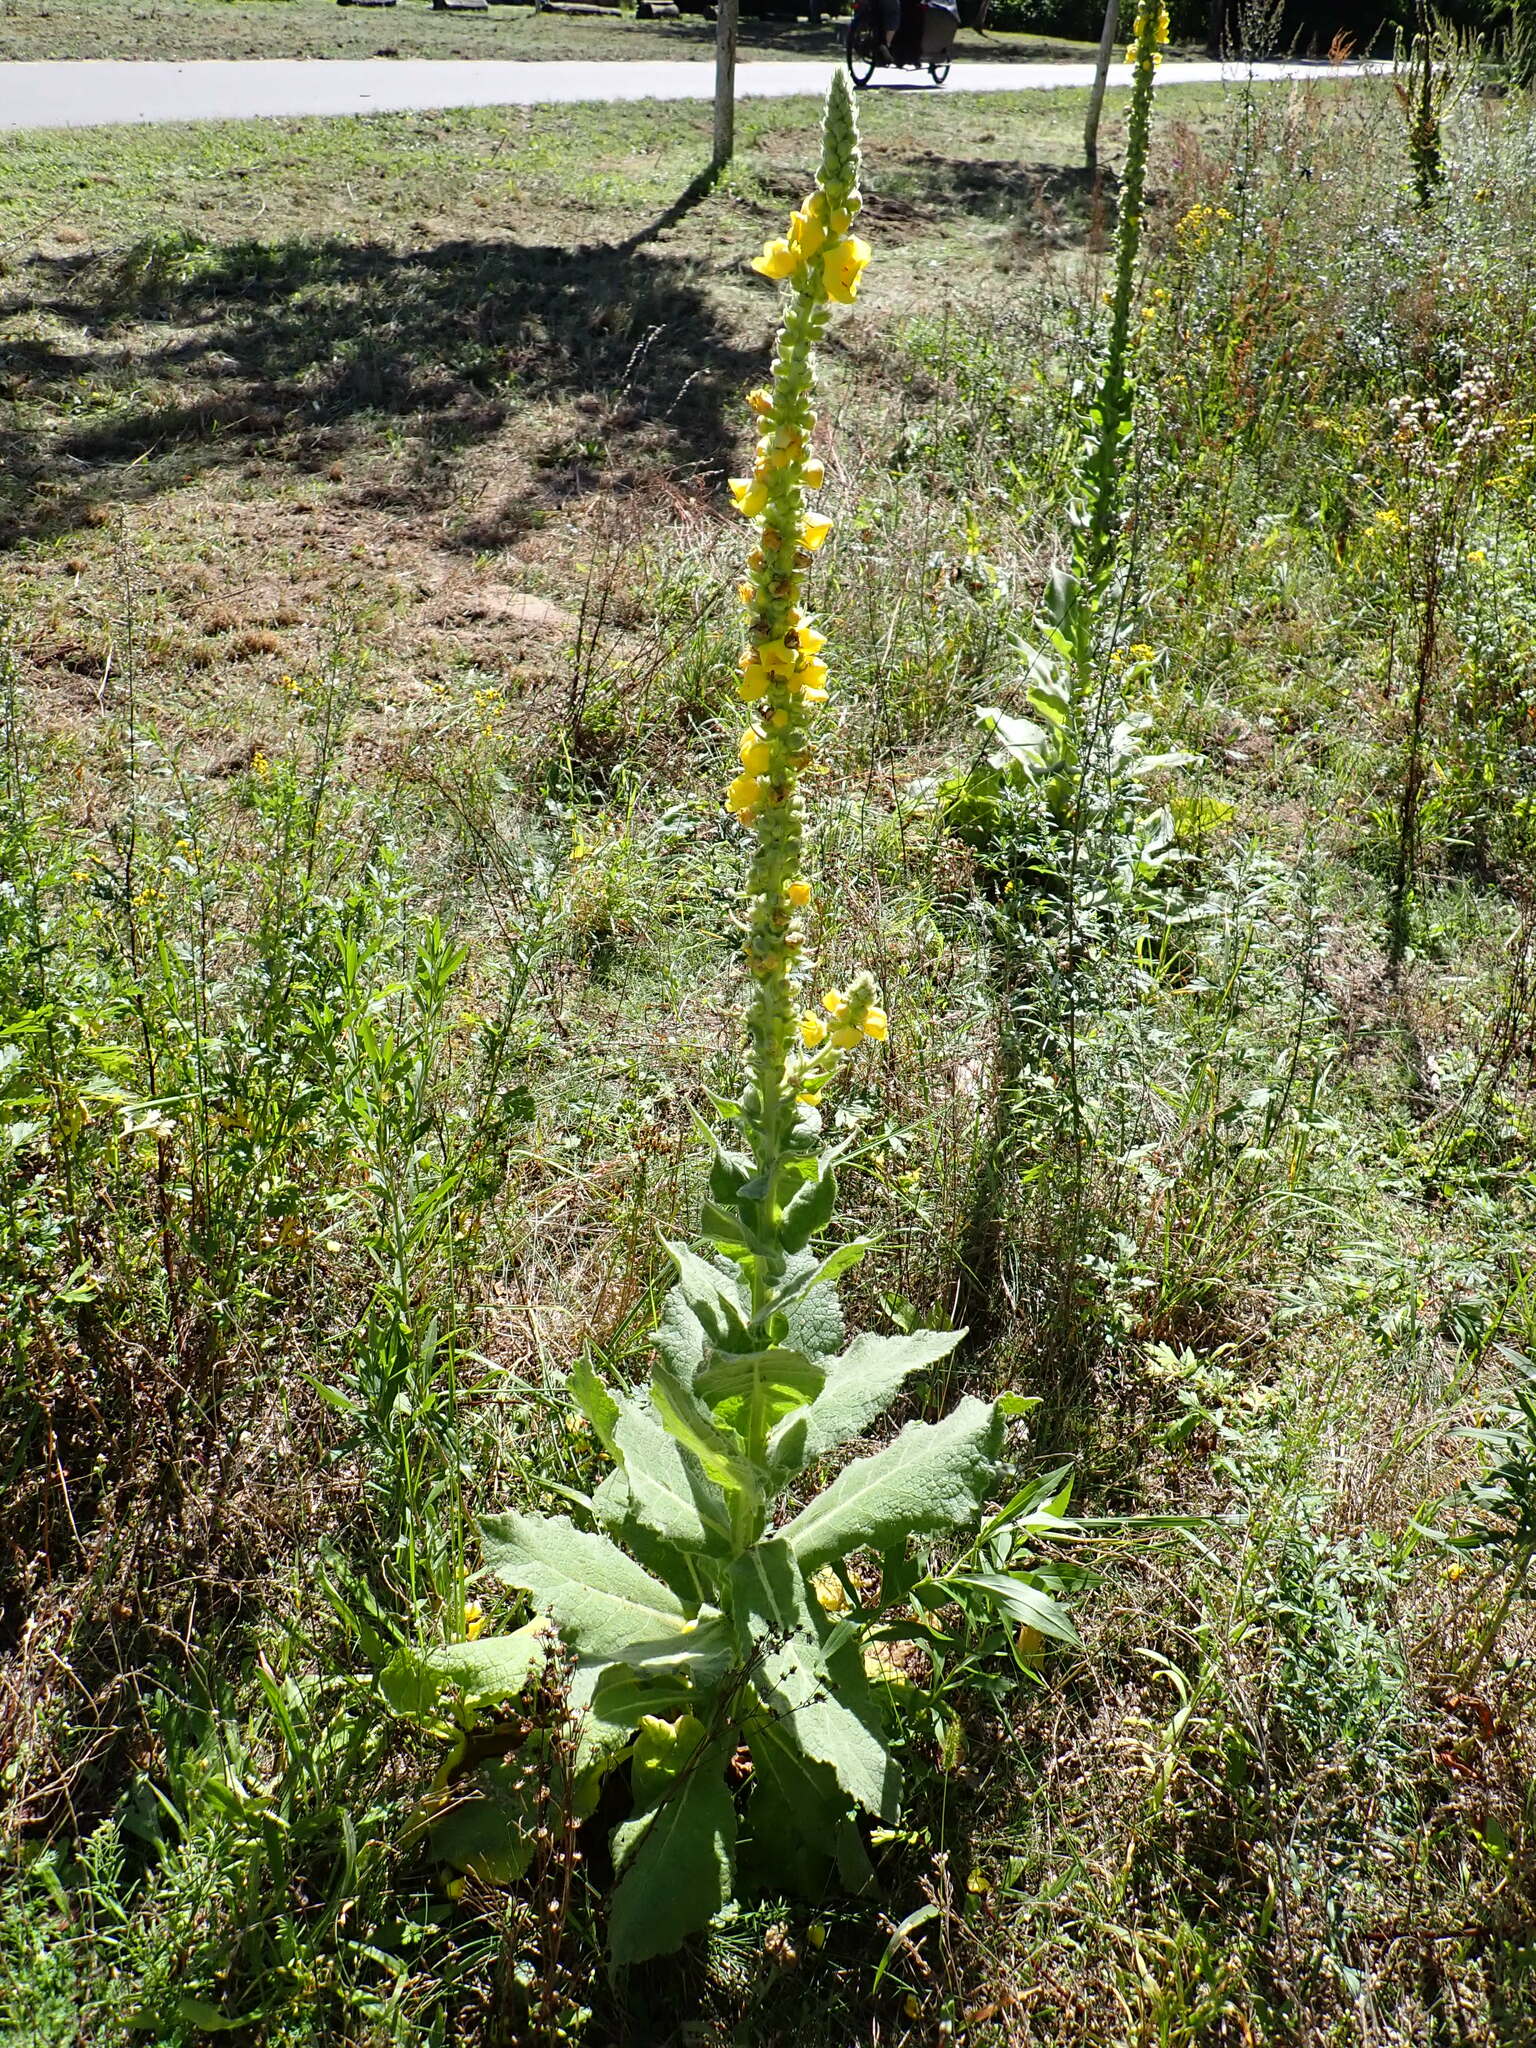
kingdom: Plantae
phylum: Tracheophyta
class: Magnoliopsida
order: Lamiales
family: Scrophulariaceae
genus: Verbascum
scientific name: Verbascum densiflorum
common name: Dense-flowered mullein
